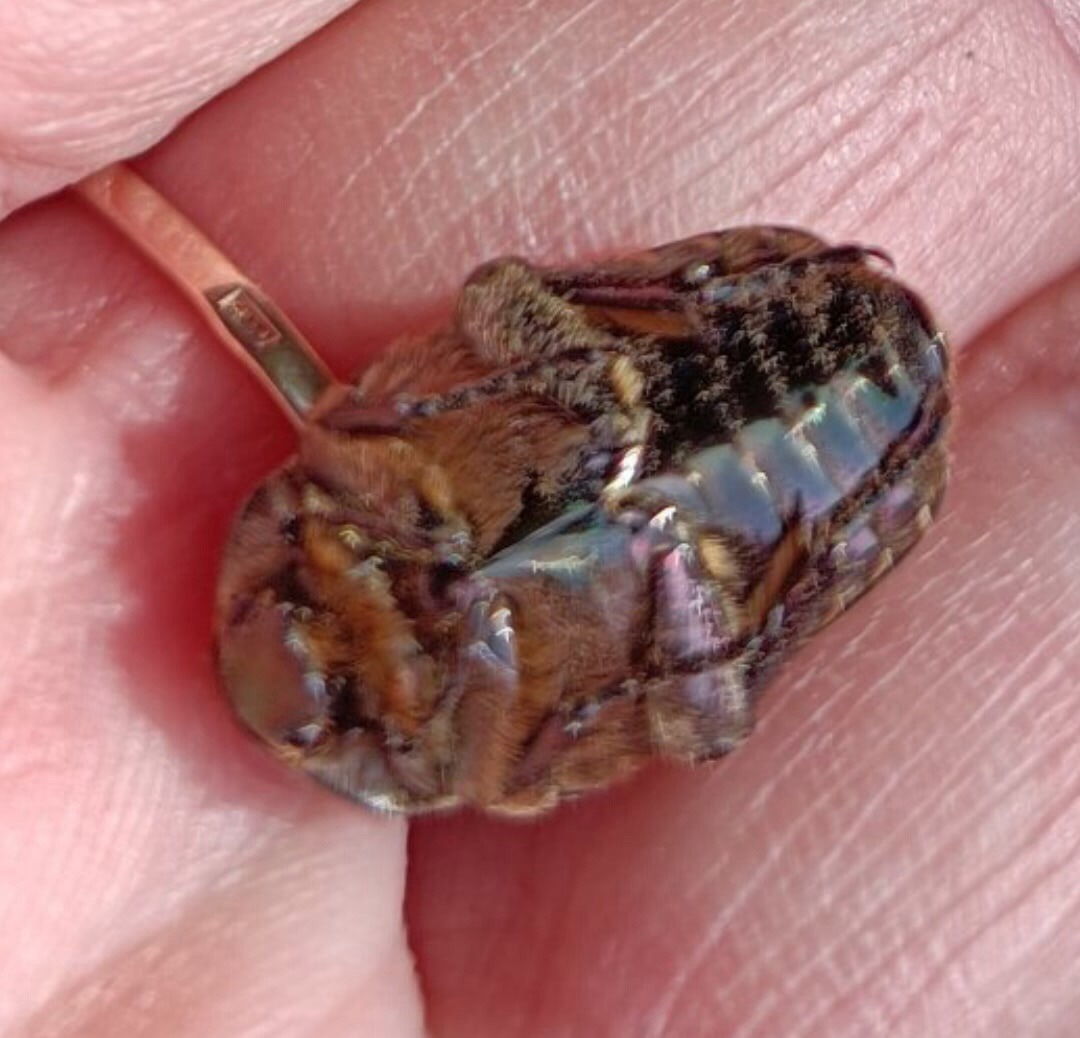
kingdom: Animalia
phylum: Arthropoda
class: Insecta
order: Coleoptera
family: Scarabaeidae
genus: Protaetia
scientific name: Protaetia cuprea
